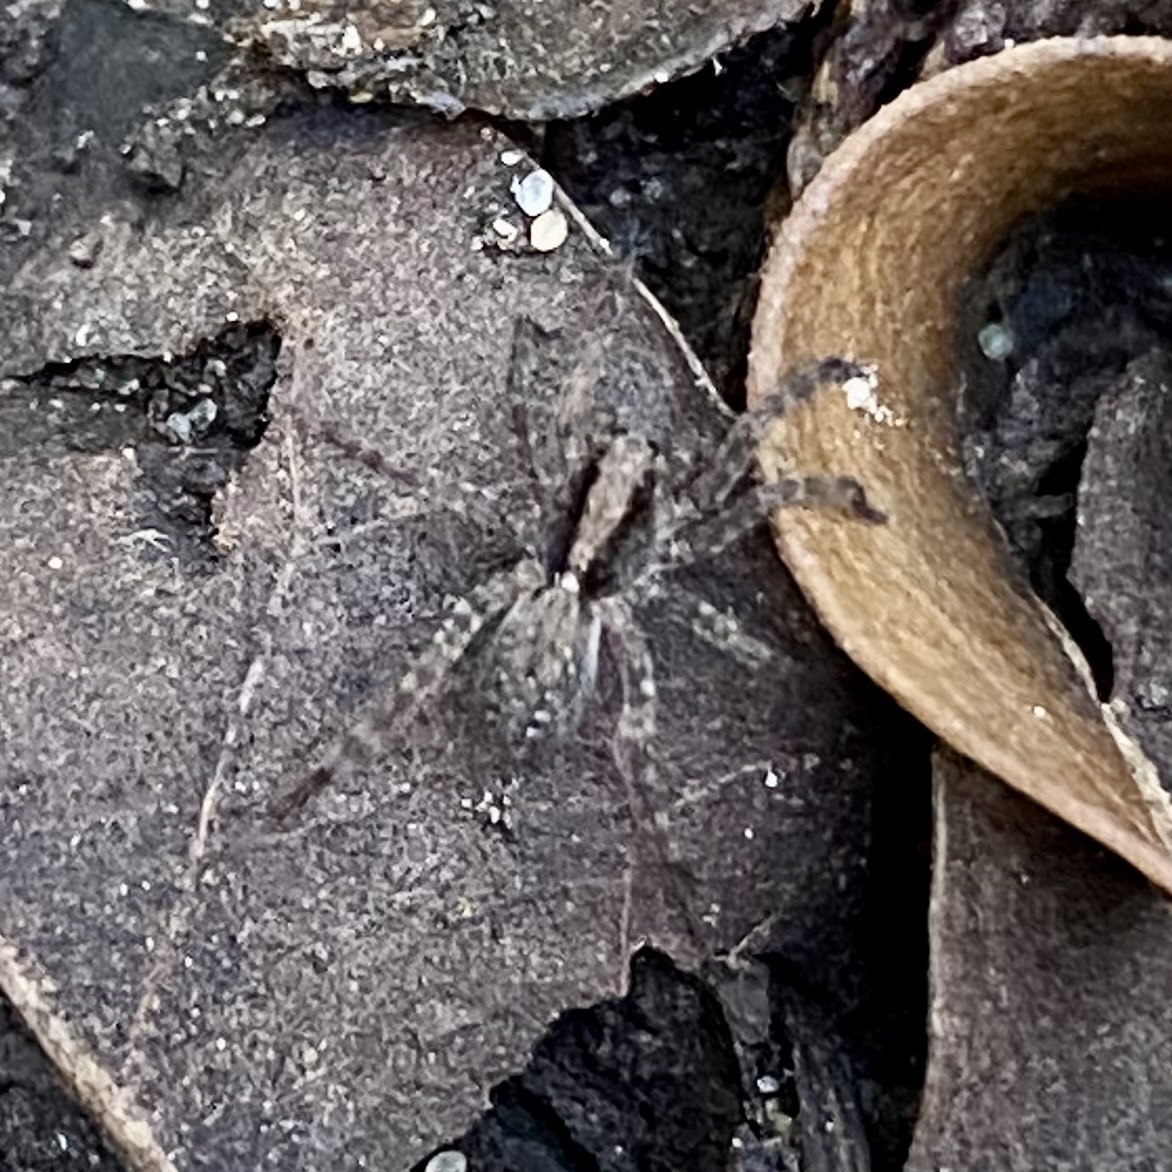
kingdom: Animalia
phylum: Arthropoda
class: Arachnida
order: Araneae
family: Lycosidae
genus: Schizocosa
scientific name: Schizocosa
